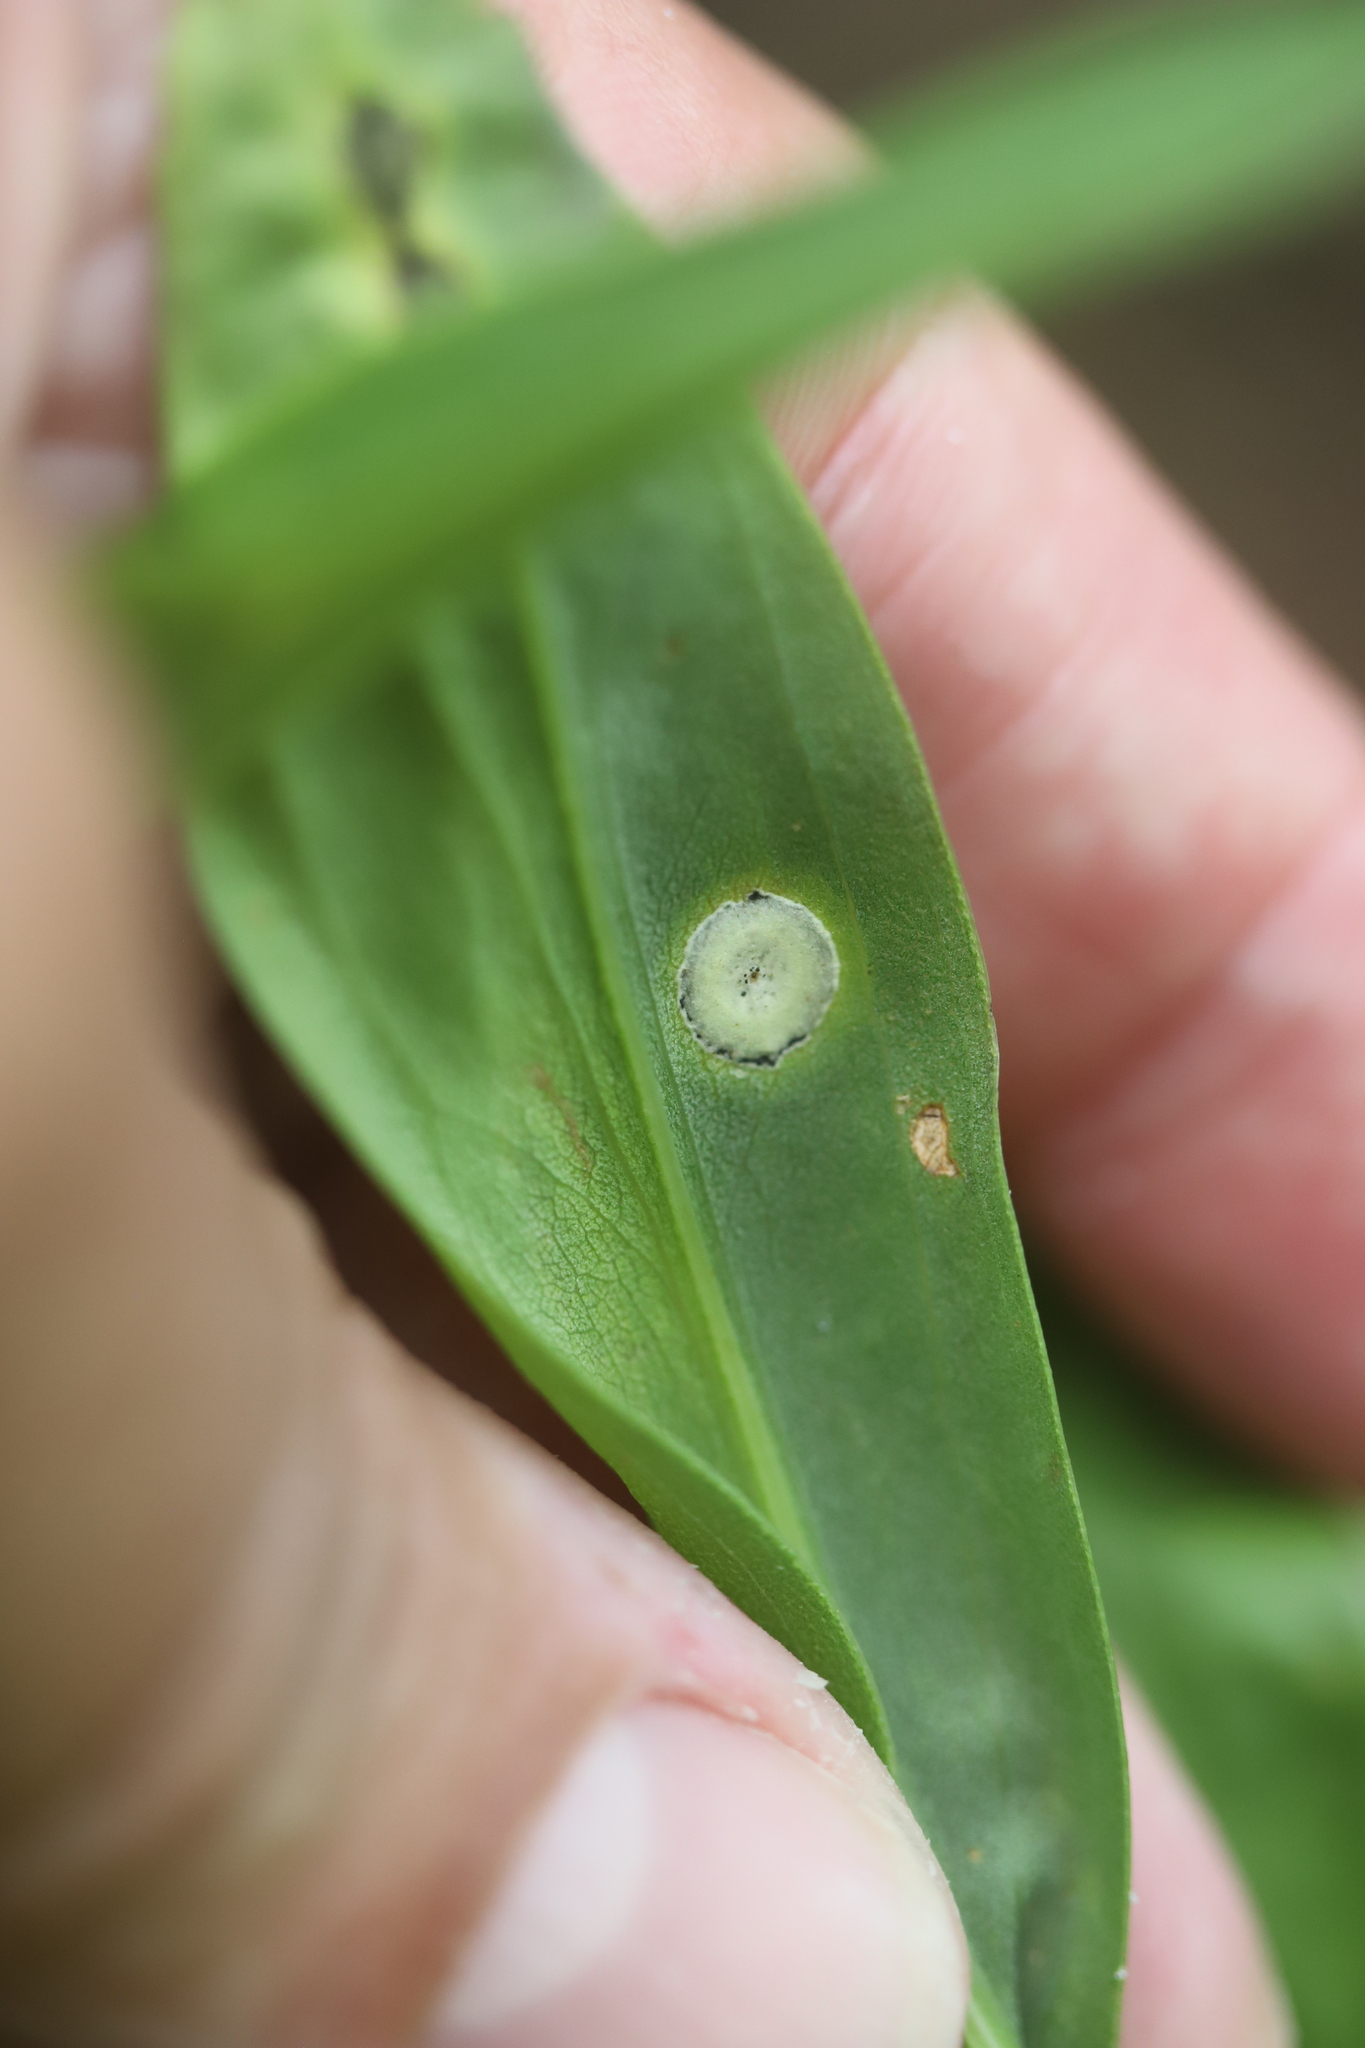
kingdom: Animalia
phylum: Arthropoda
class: Insecta
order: Diptera
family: Cecidomyiidae
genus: Asteromyia
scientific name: Asteromyia carbonifera
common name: Carbonifera goldenrod gall midge
